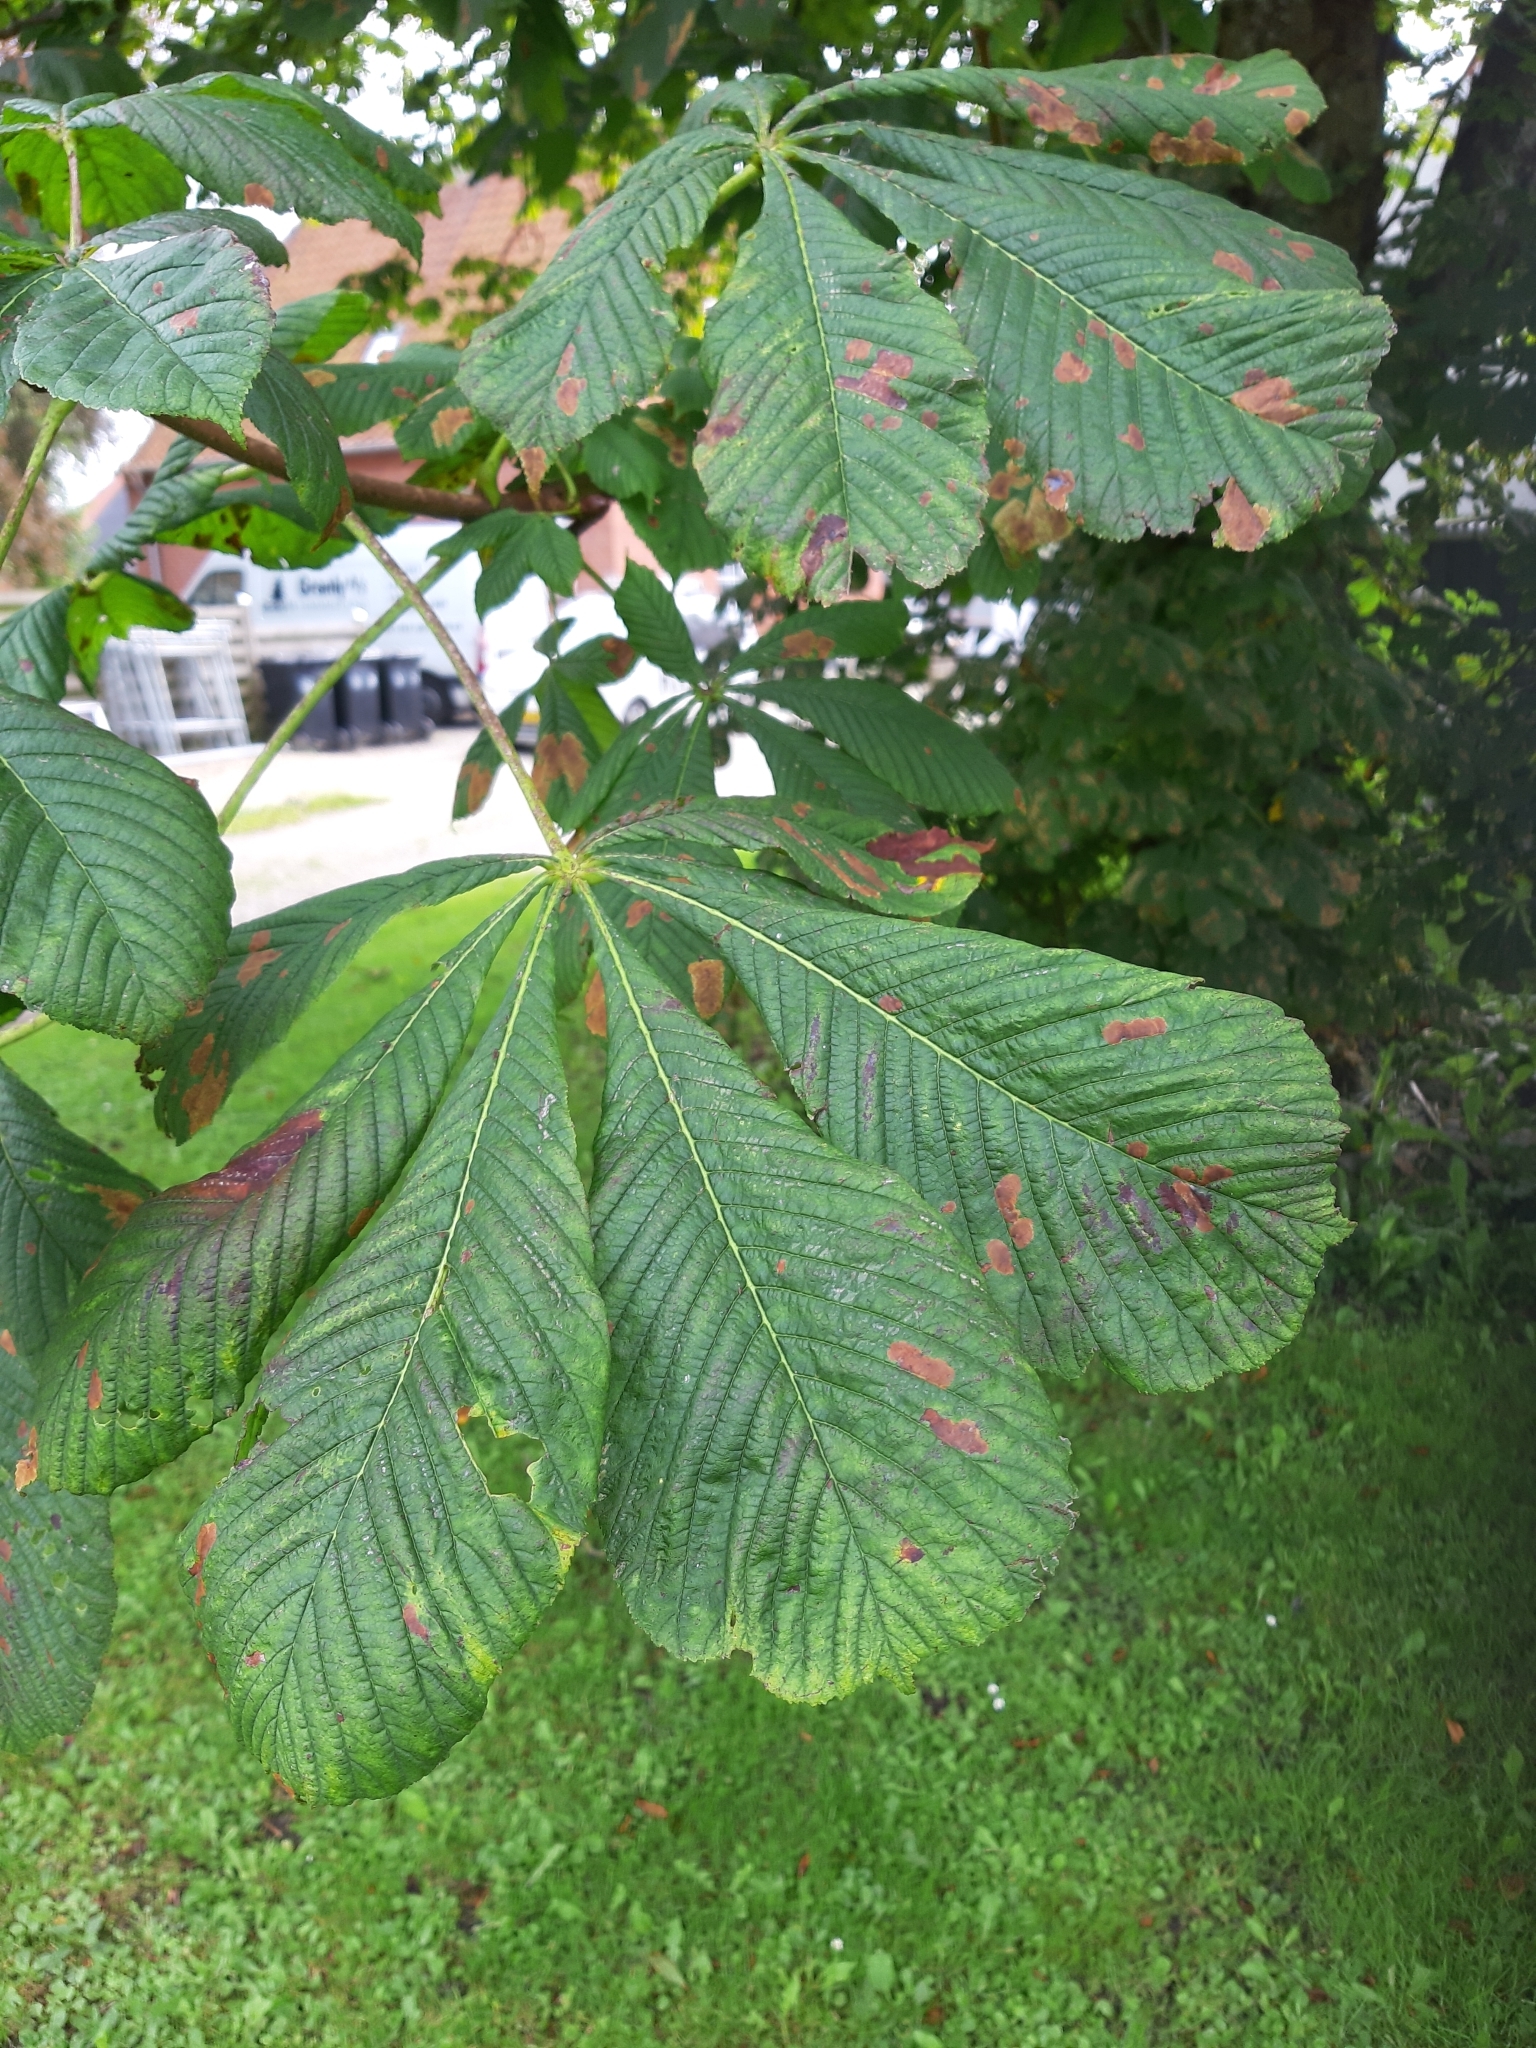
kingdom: Plantae
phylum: Tracheophyta
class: Magnoliopsida
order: Sapindales
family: Sapindaceae
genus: Aesculus
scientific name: Aesculus hippocastanum
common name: Horse-chestnut
